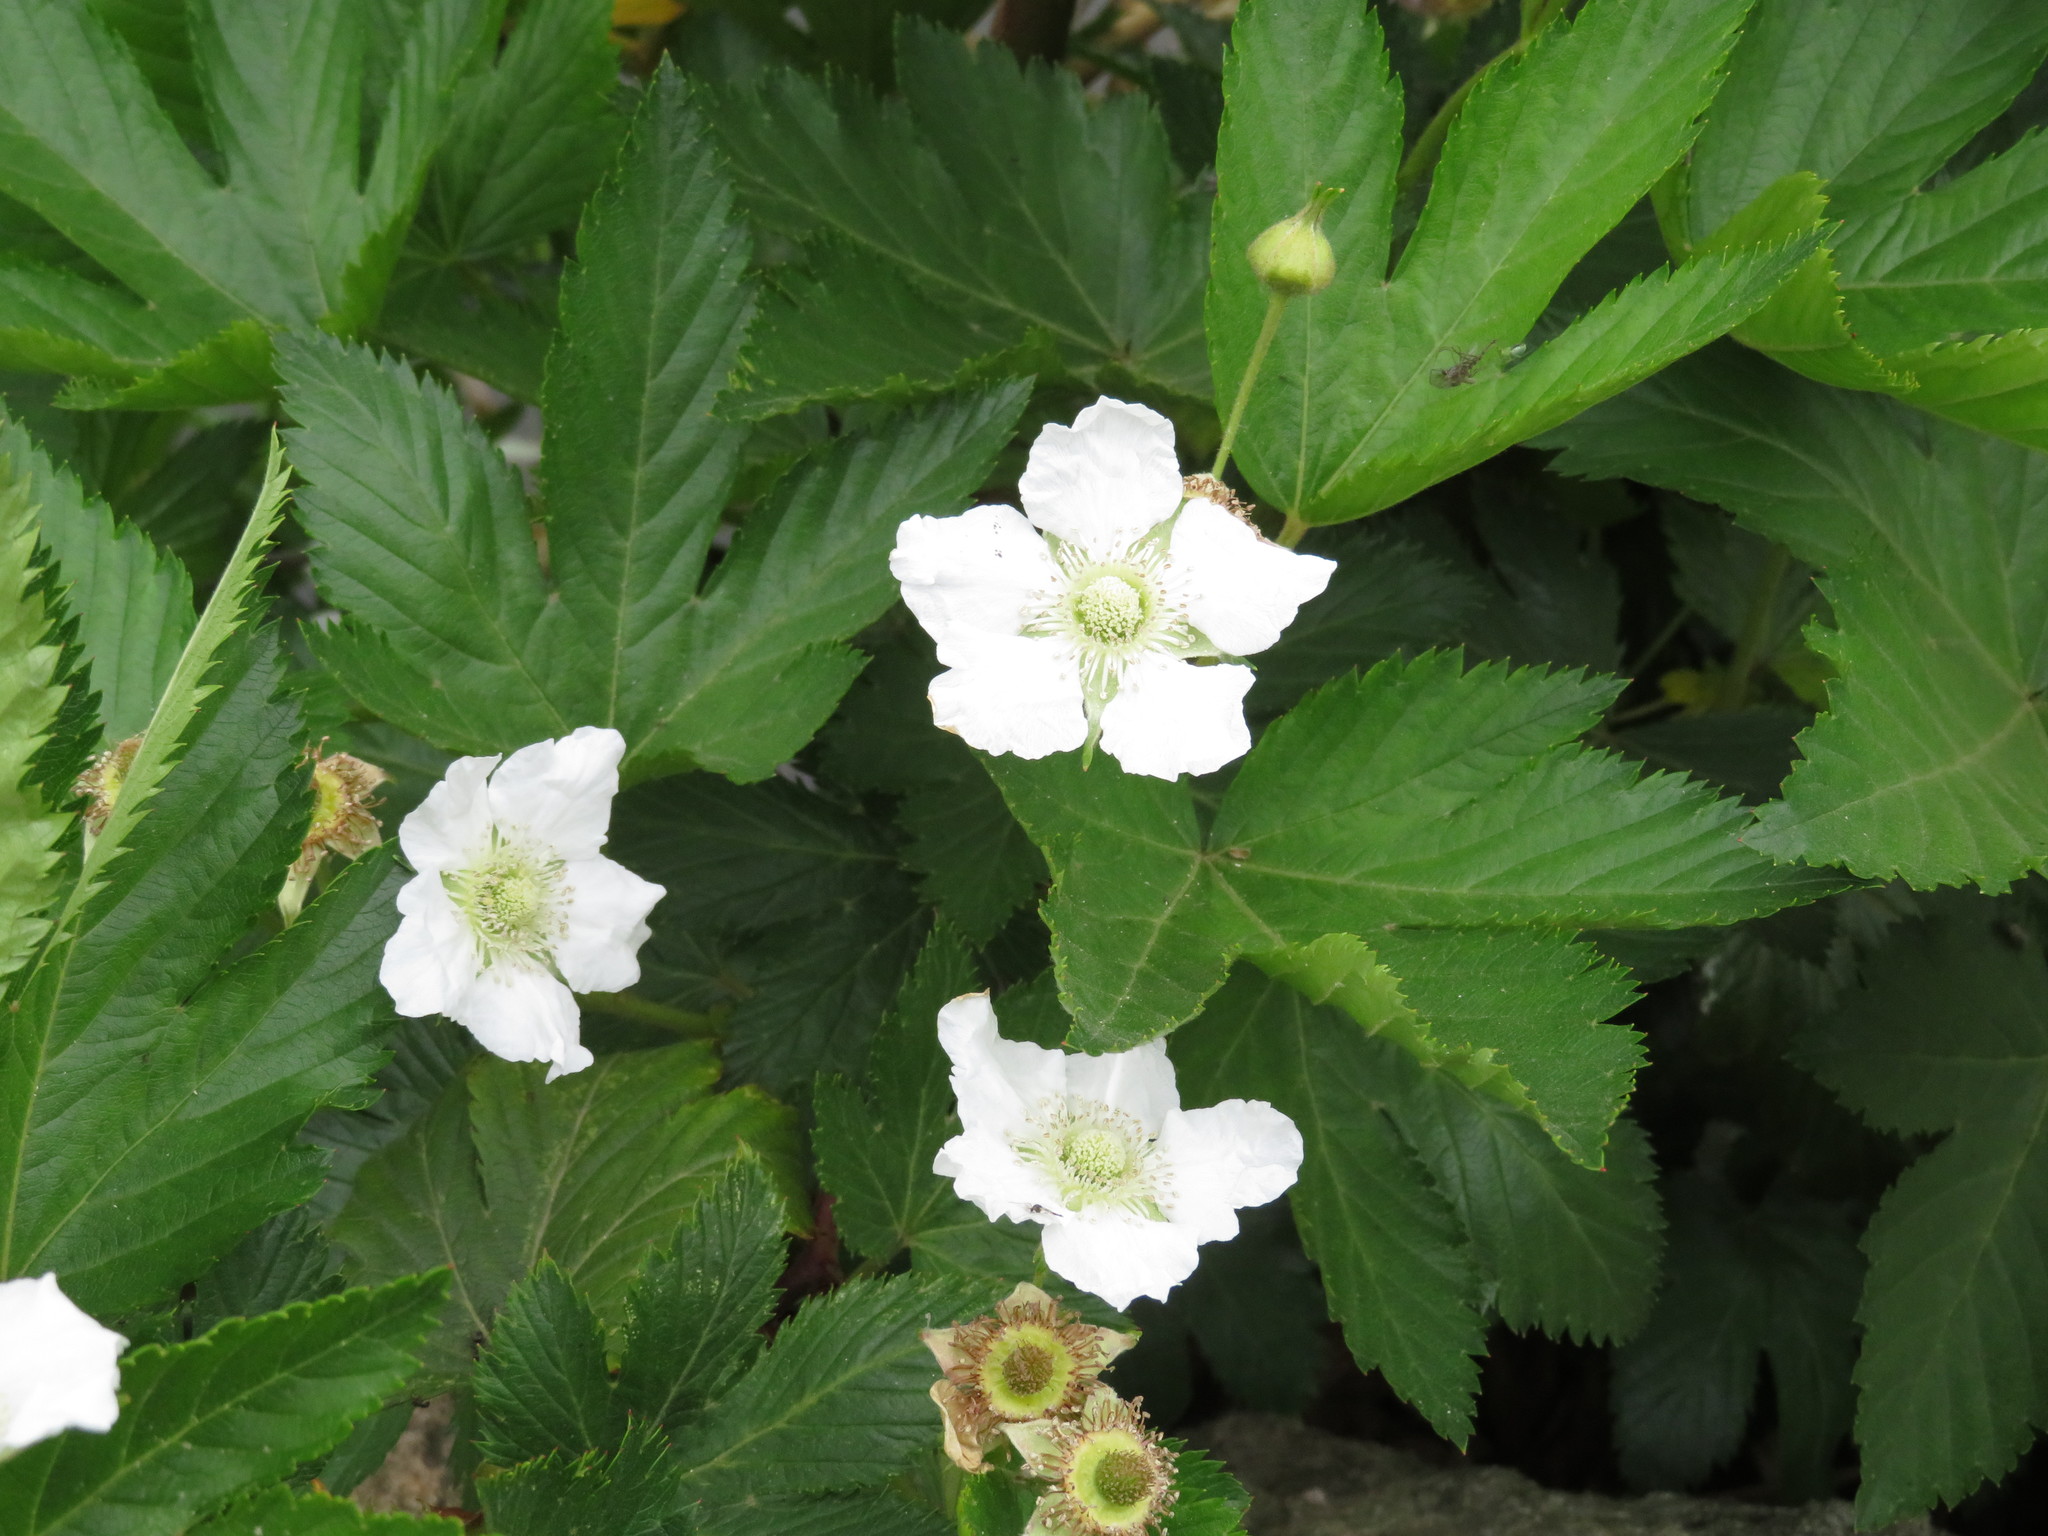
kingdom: Plantae
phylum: Tracheophyta
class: Magnoliopsida
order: Rosales
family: Rosaceae
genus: Rubus
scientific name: Rubus trifidus
